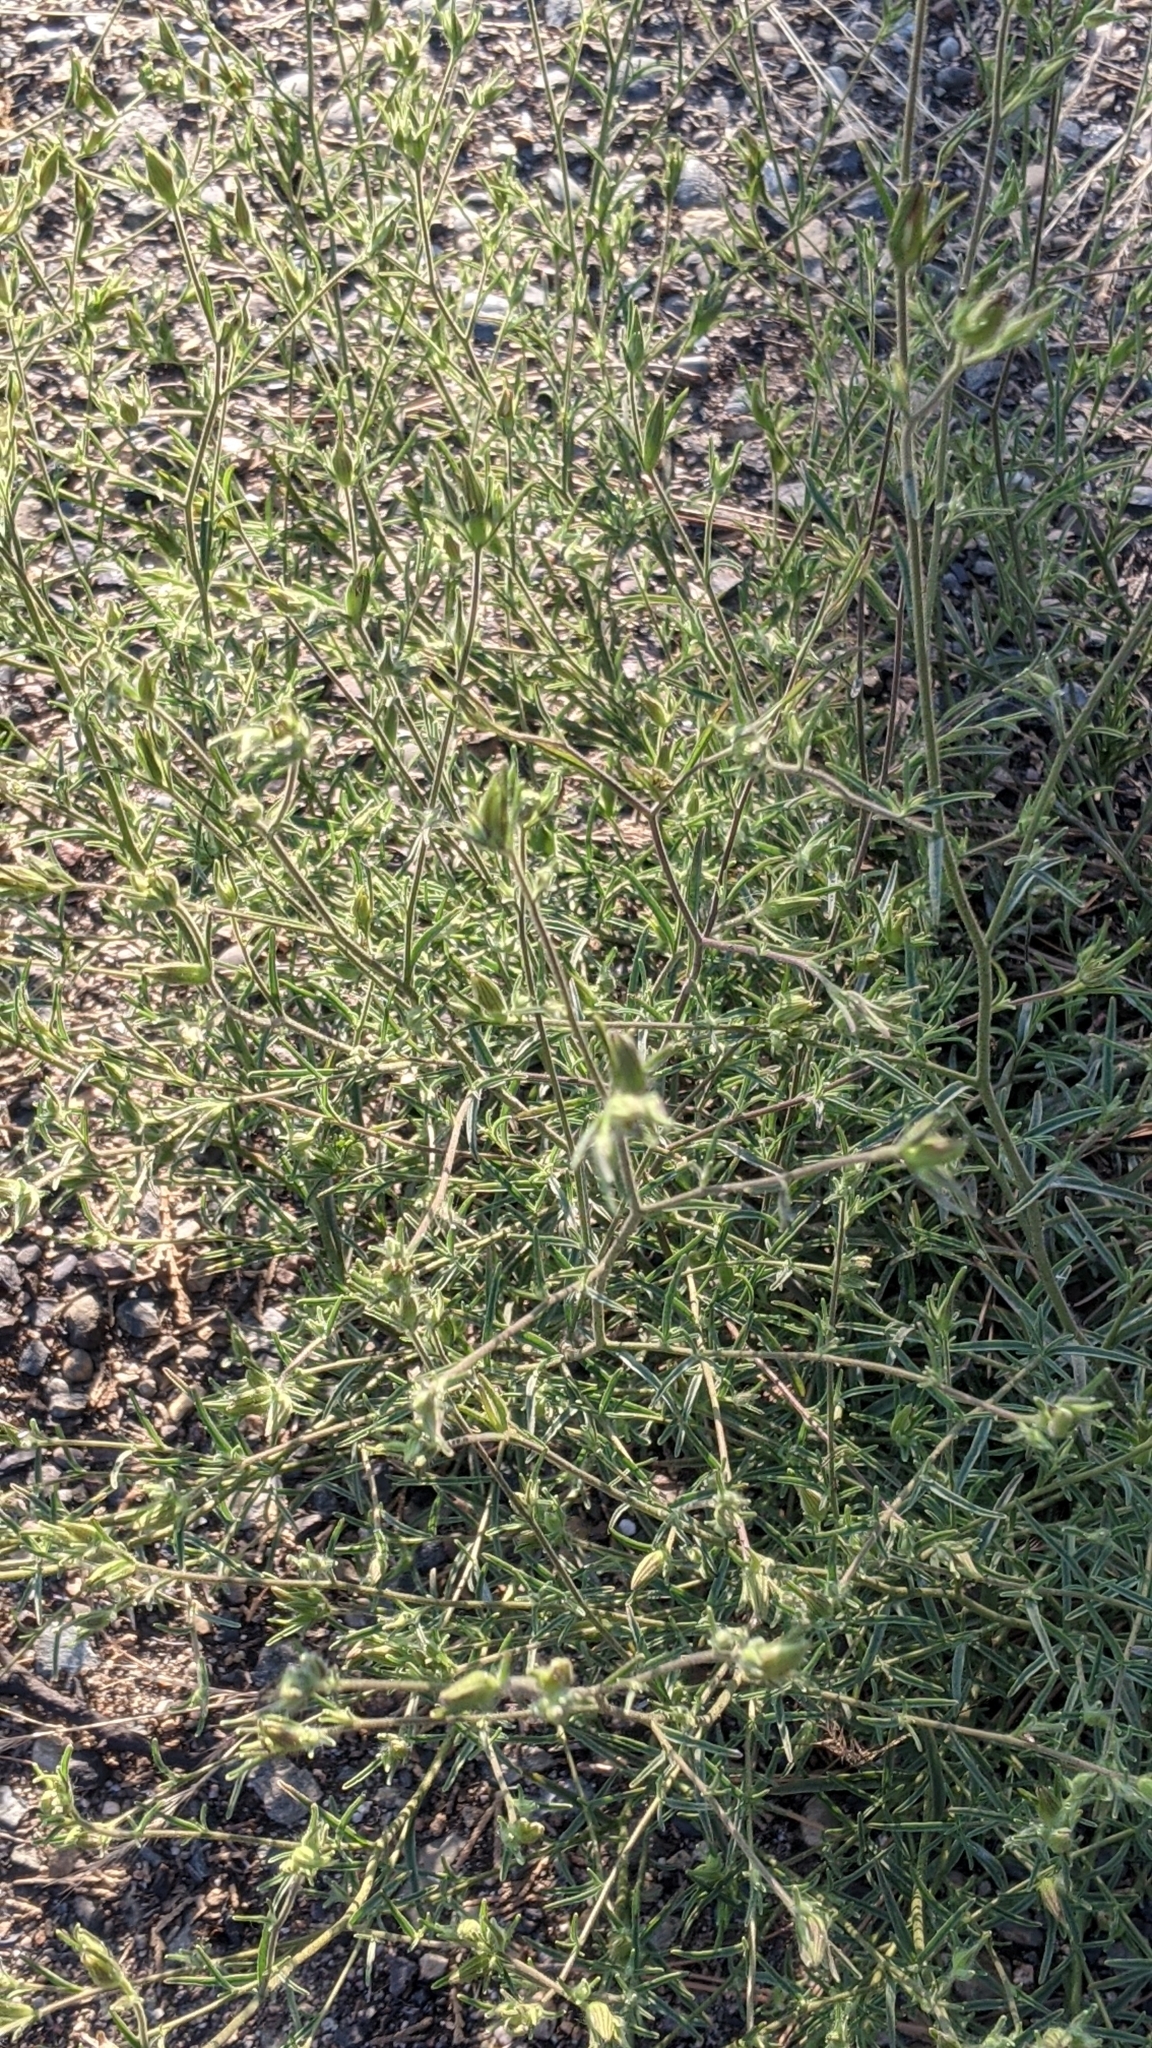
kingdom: Plantae
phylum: Tracheophyta
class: Magnoliopsida
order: Lamiales
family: Orobanchaceae
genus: Cordylanthus
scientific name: Cordylanthus rigidus
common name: Stiff-branch bird's-beak
